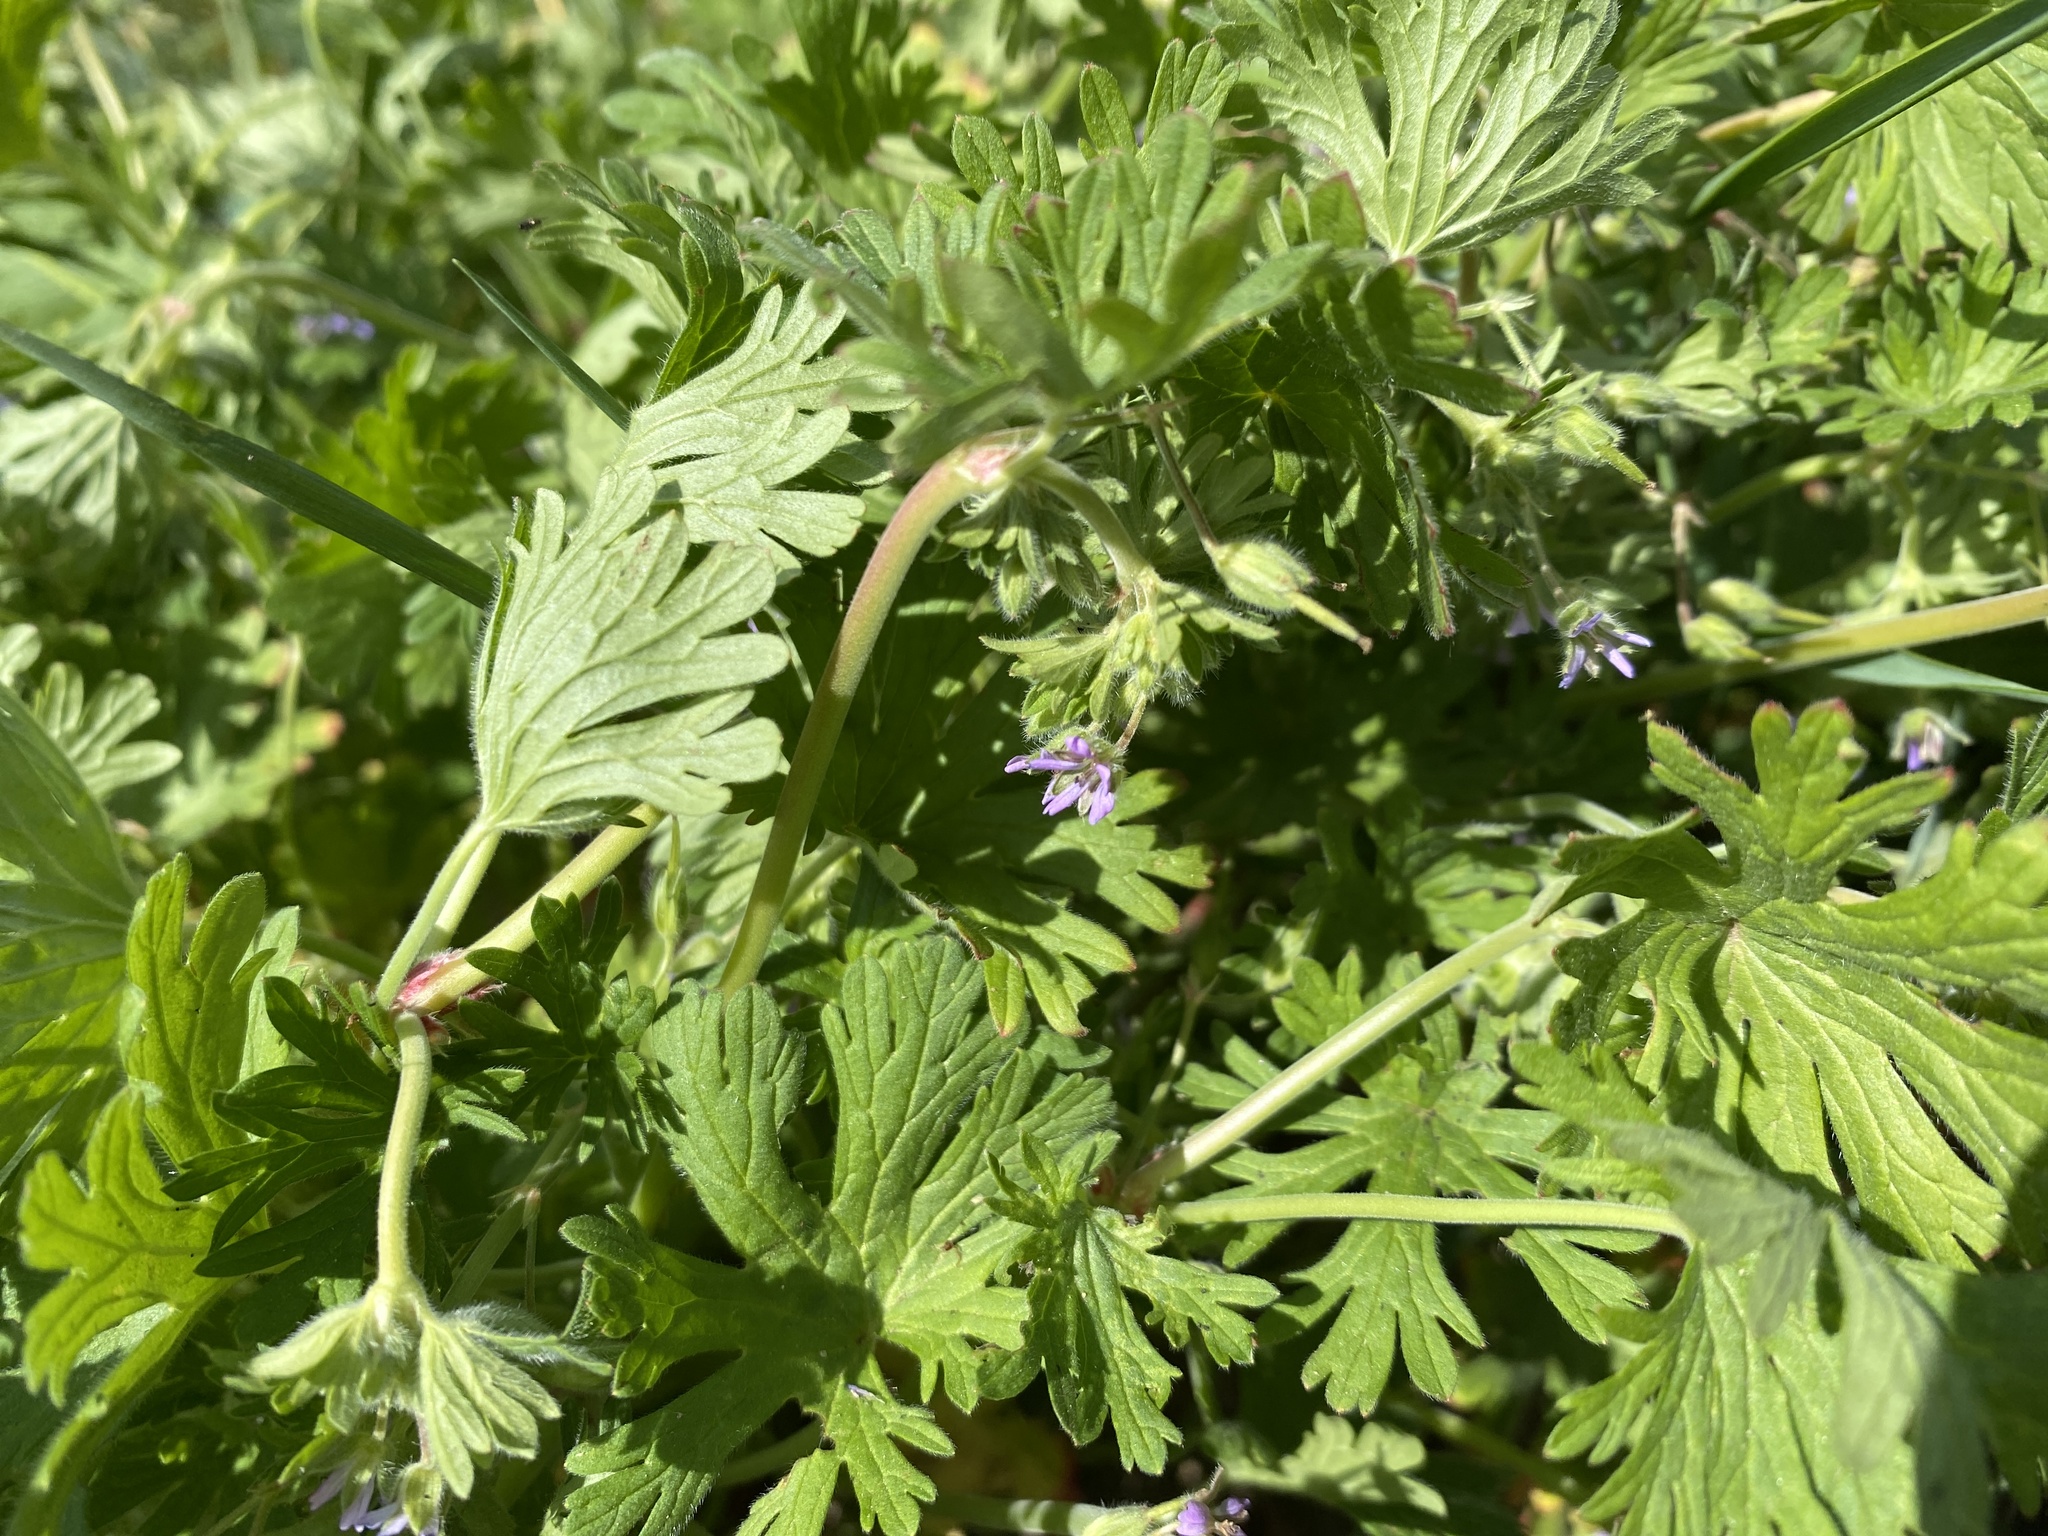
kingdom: Plantae
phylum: Tracheophyta
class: Magnoliopsida
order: Geraniales
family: Geraniaceae
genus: Geranium
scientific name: Geranium pusillum
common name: Small geranium
